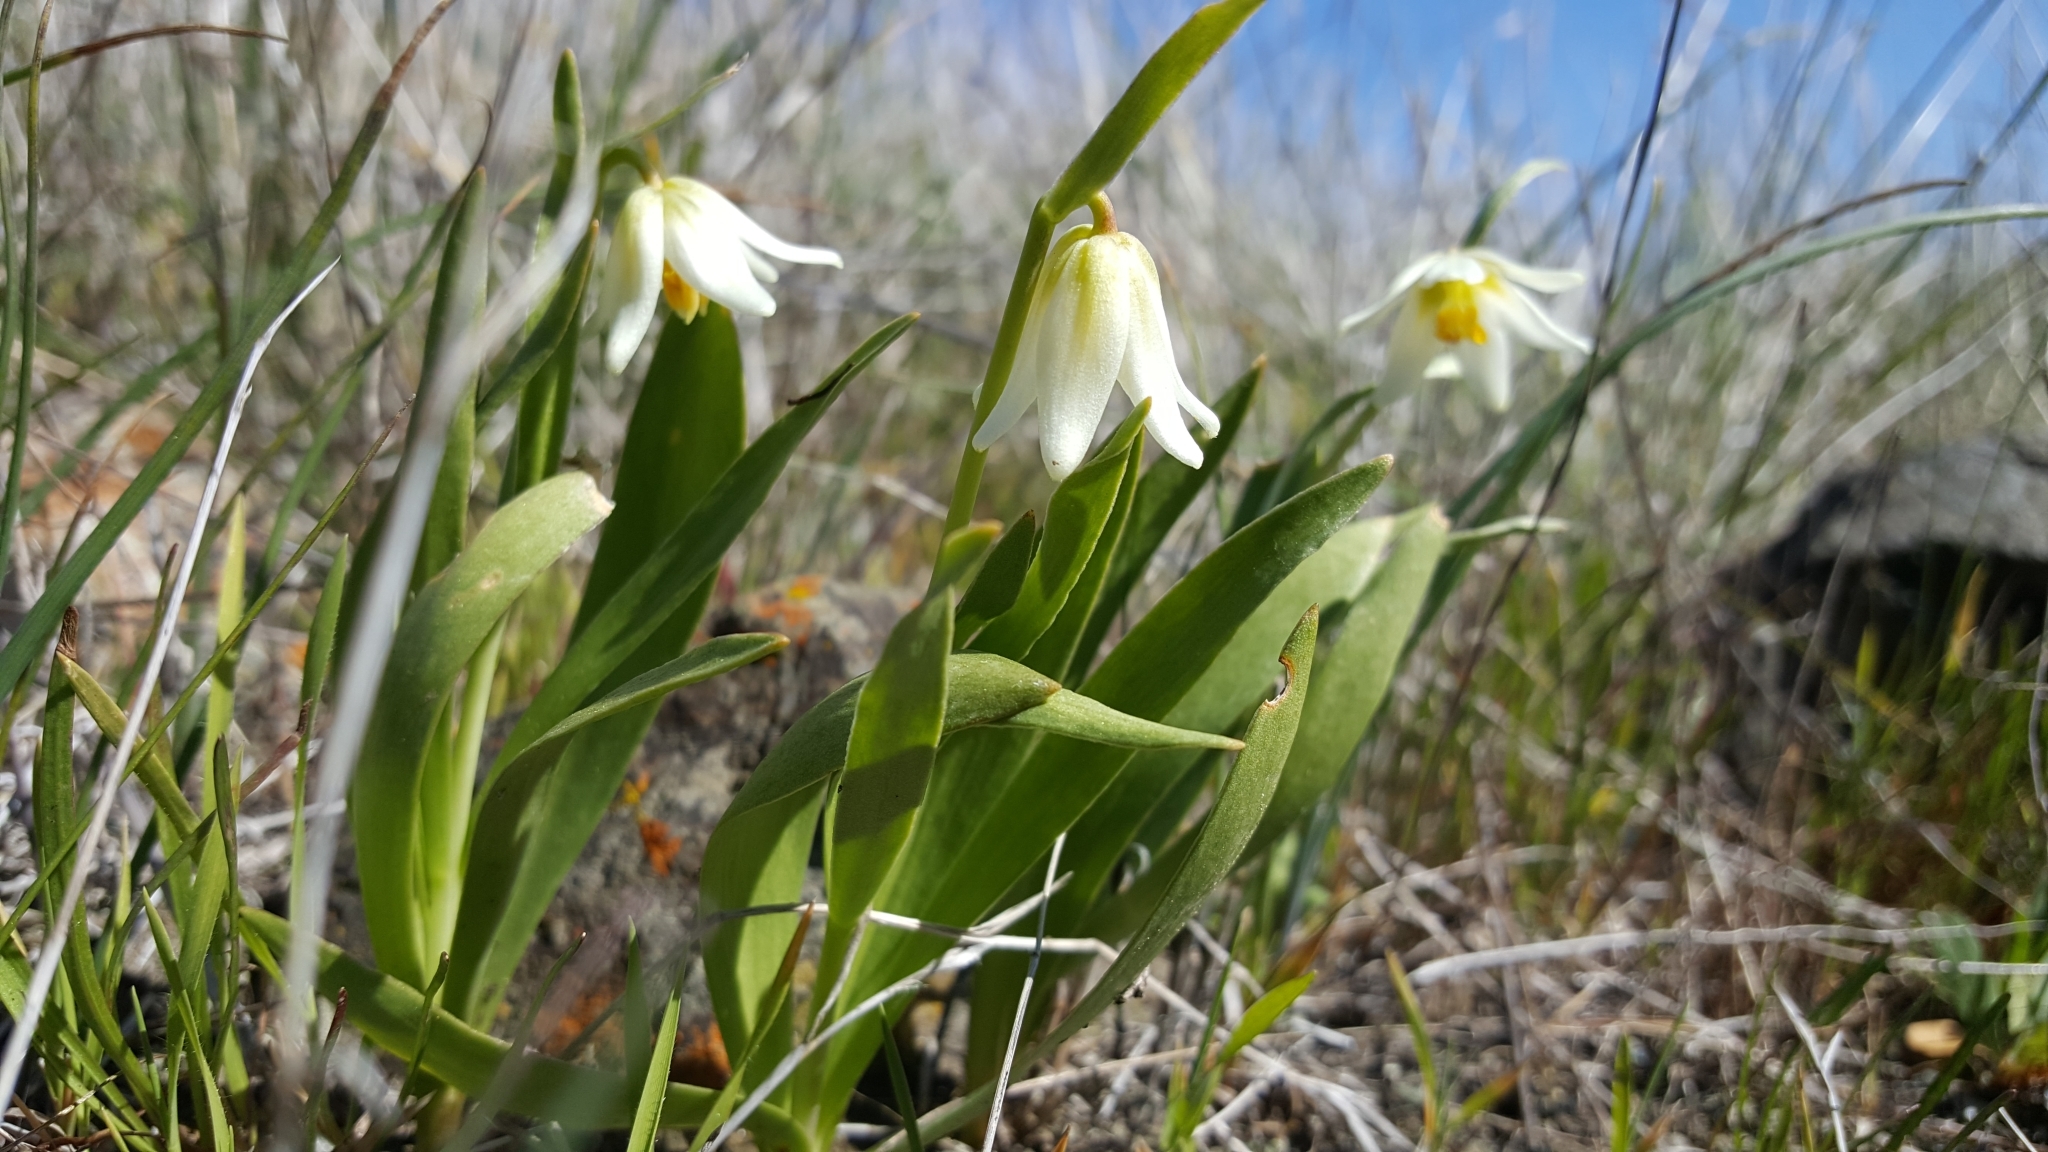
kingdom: Plantae
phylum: Tracheophyta
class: Liliopsida
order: Liliales
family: Liliaceae
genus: Fritillaria
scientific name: Fritillaria liliacea
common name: Fragrant fritillary
